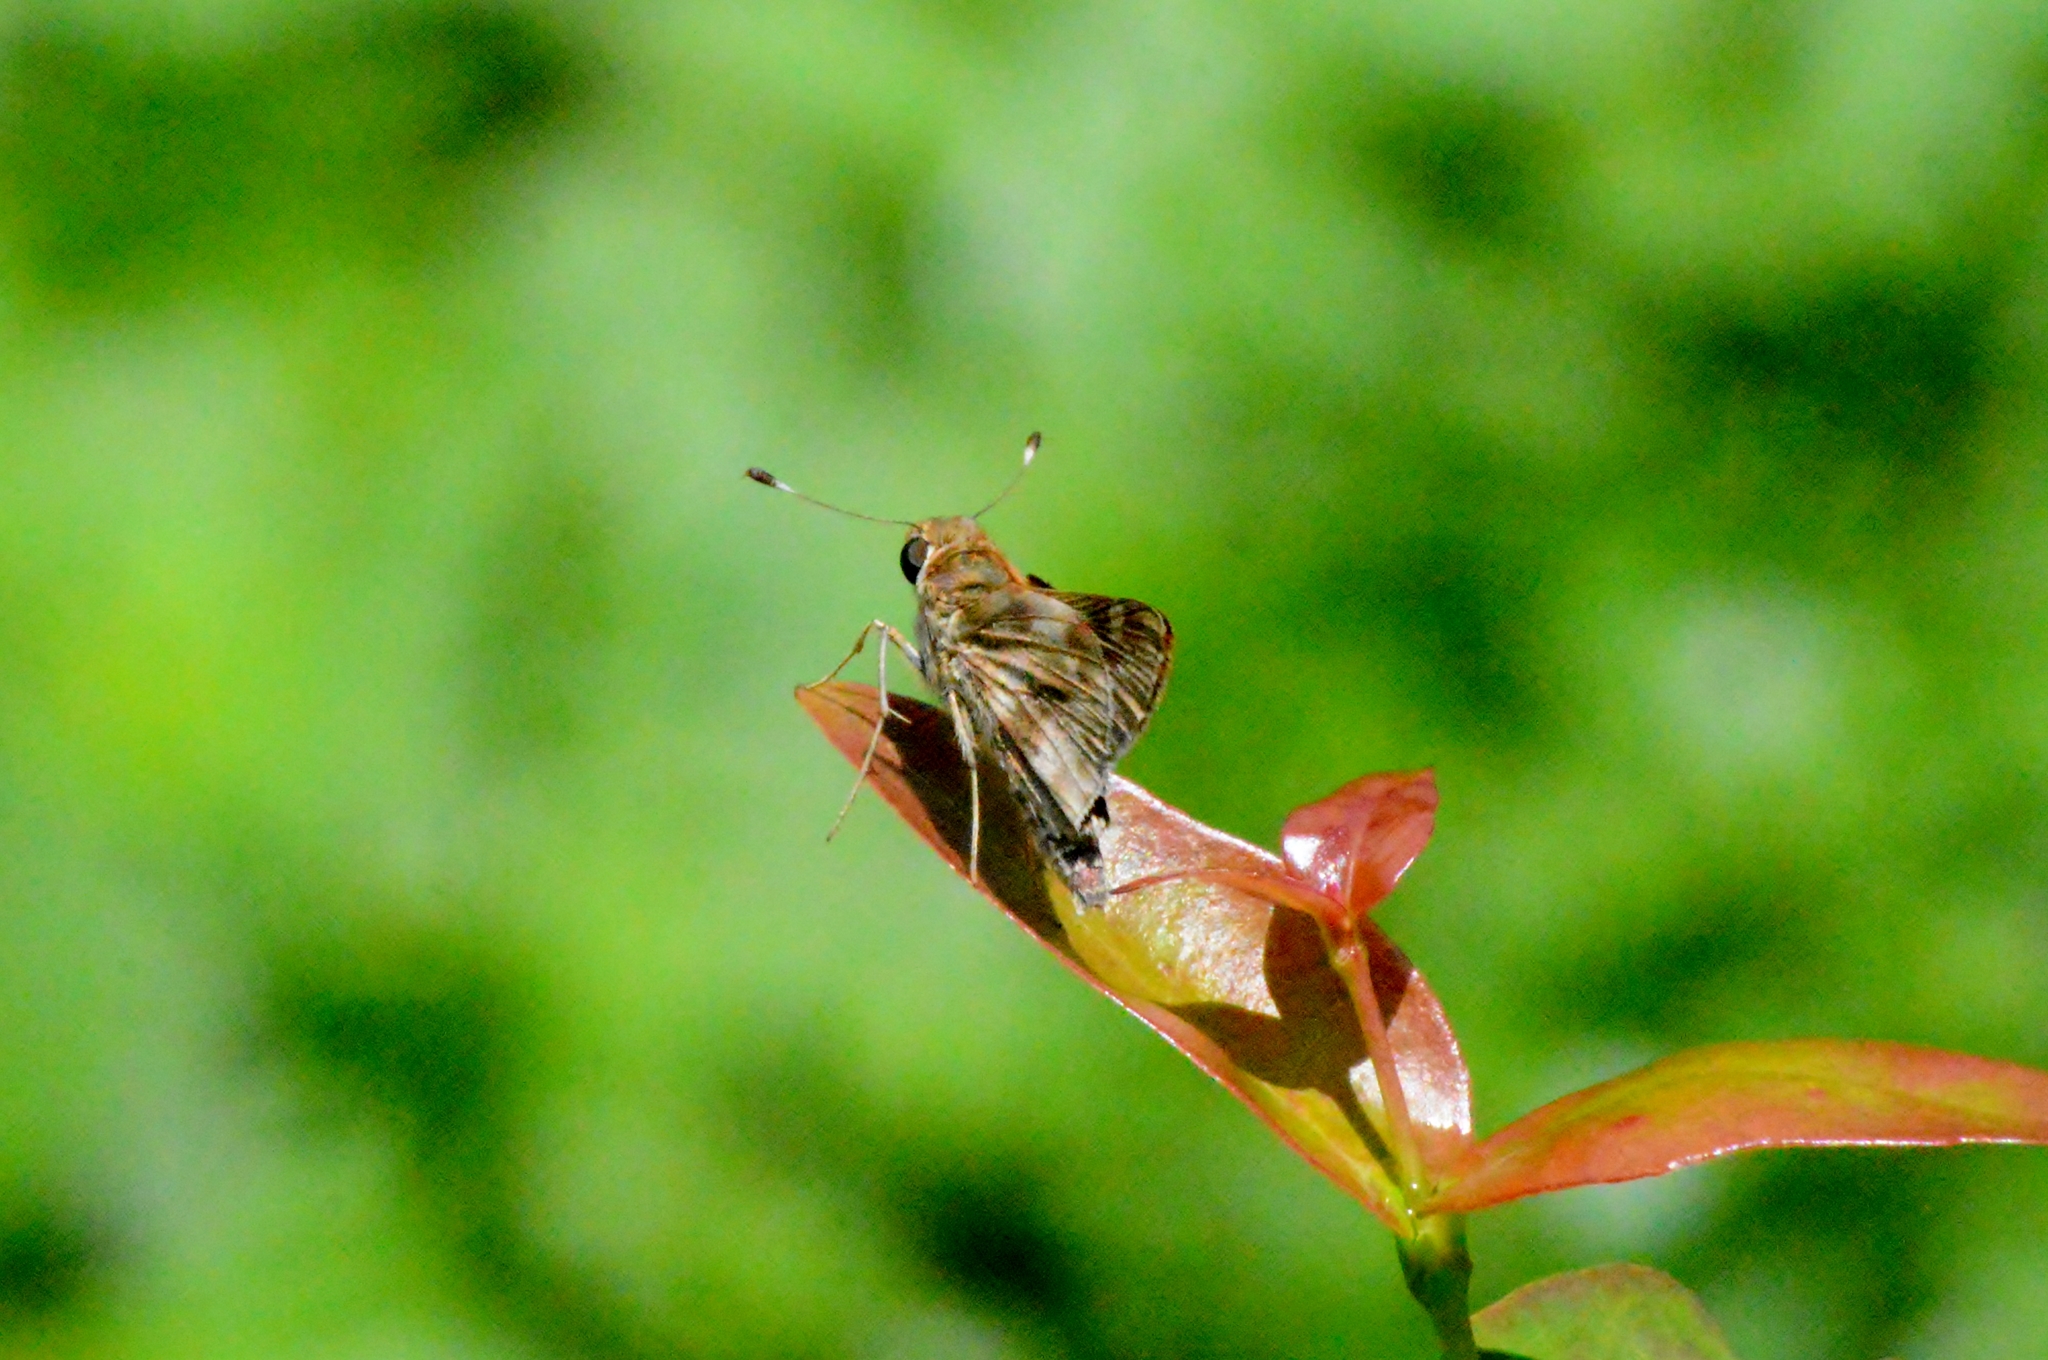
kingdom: Animalia
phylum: Arthropoda
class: Insecta
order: Lepidoptera
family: Hesperiidae
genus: Pompeius
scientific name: Pompeius pompeius
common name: Pompeius skipper
